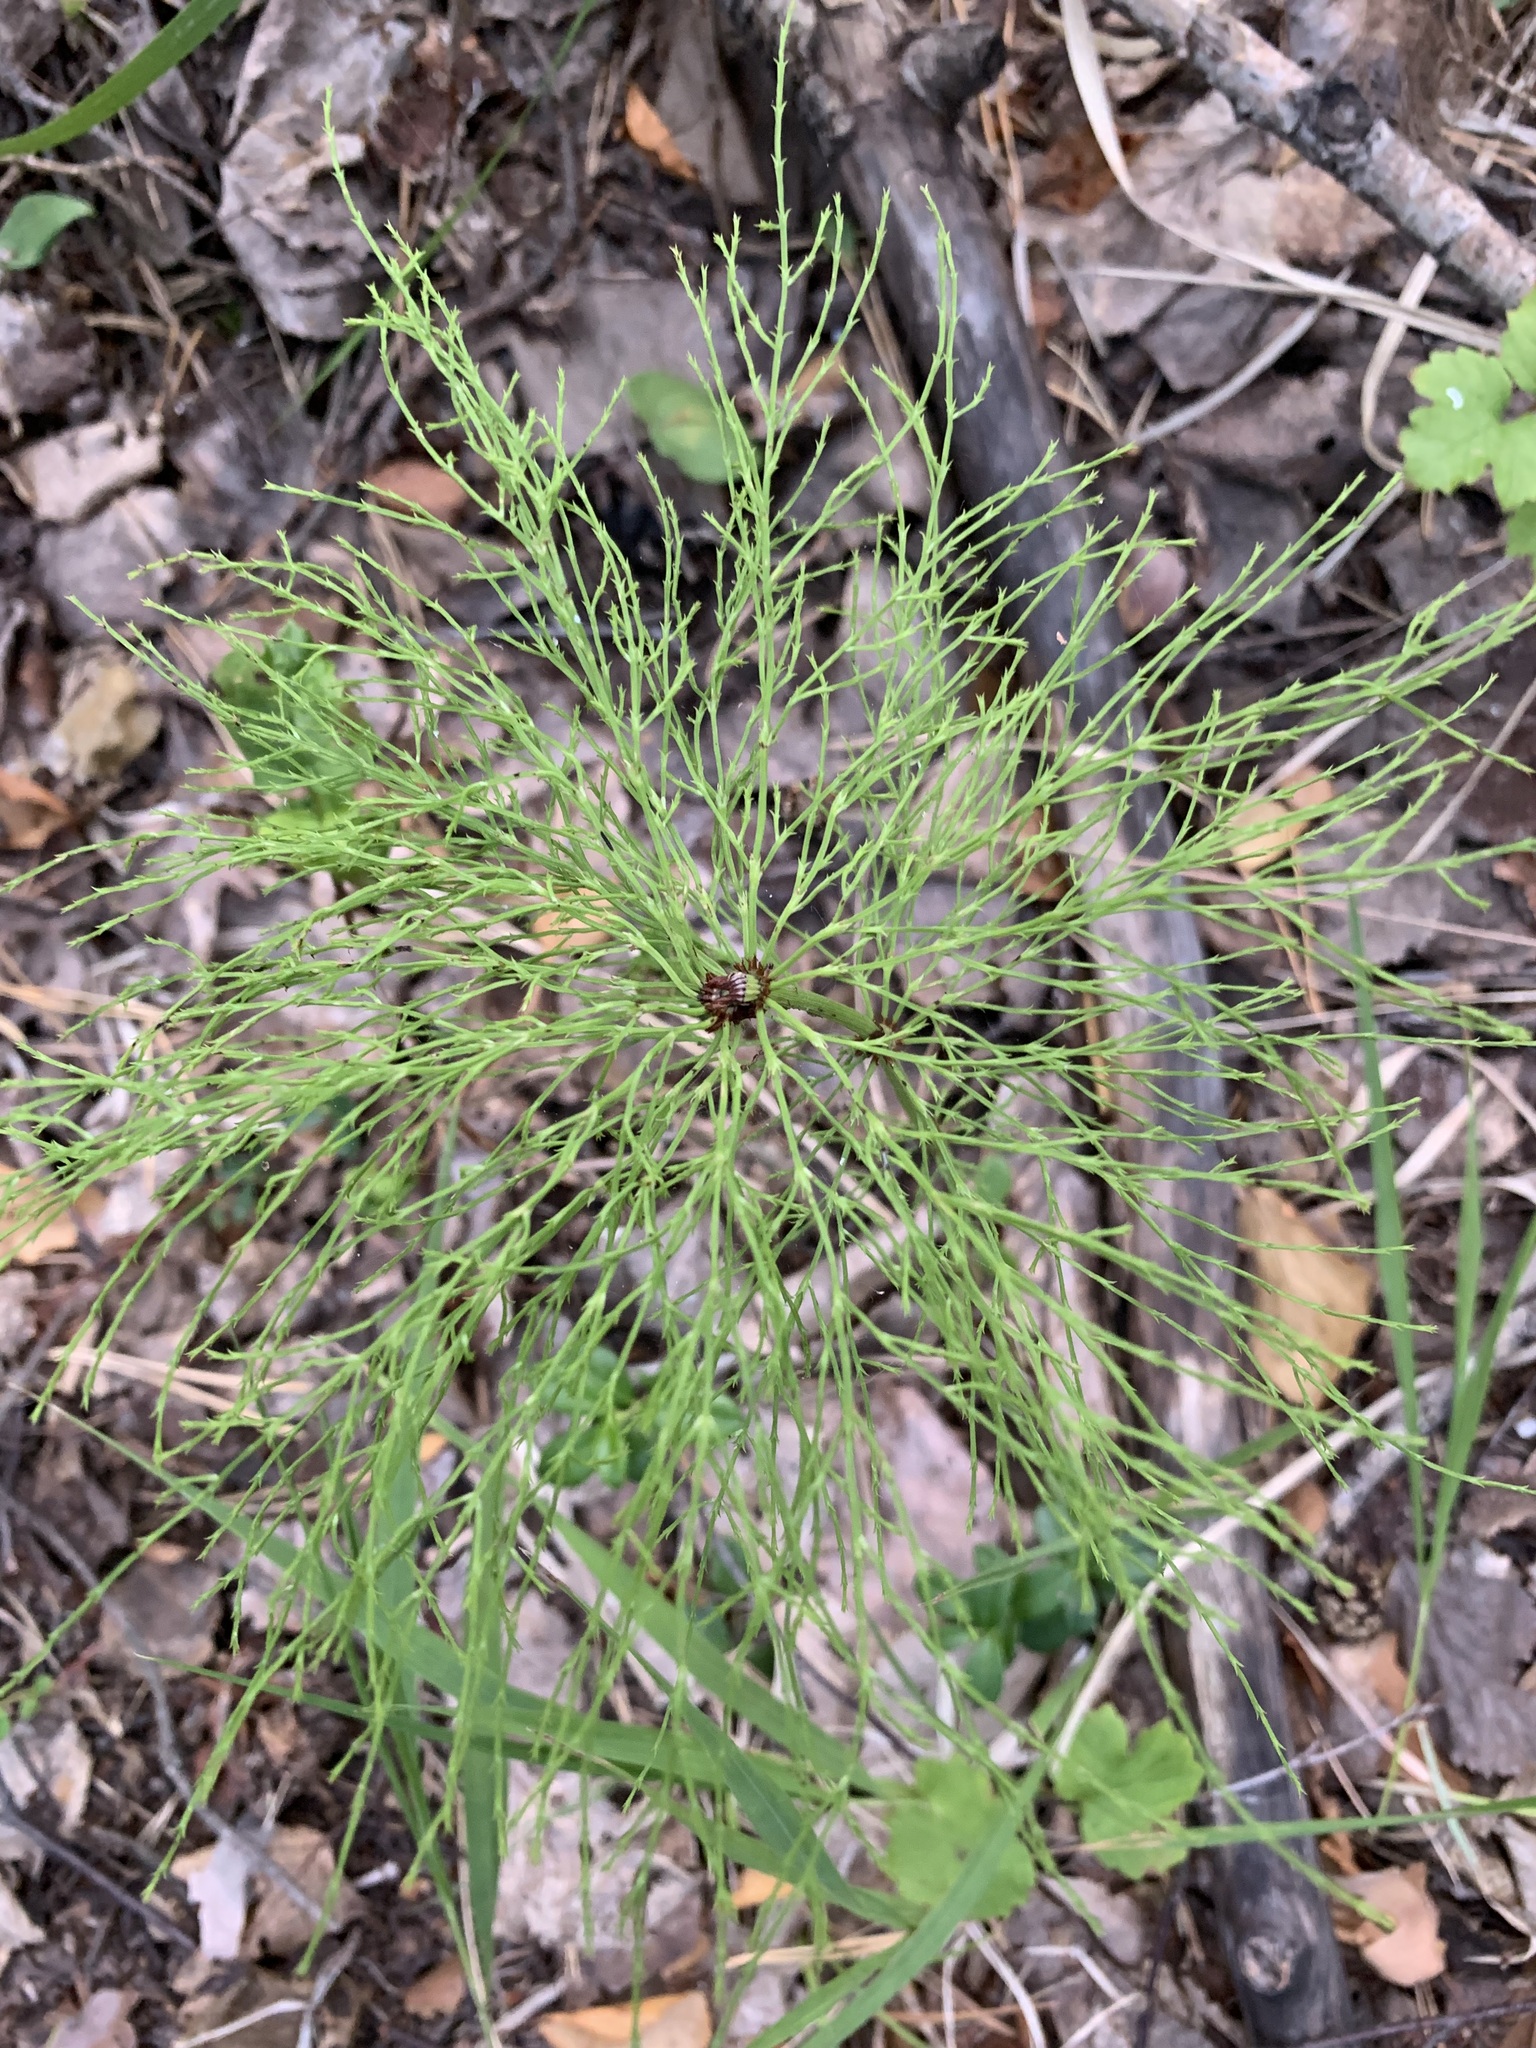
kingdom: Plantae
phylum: Tracheophyta
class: Polypodiopsida
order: Equisetales
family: Equisetaceae
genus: Equisetum
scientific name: Equisetum sylvaticum
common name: Wood horsetail
